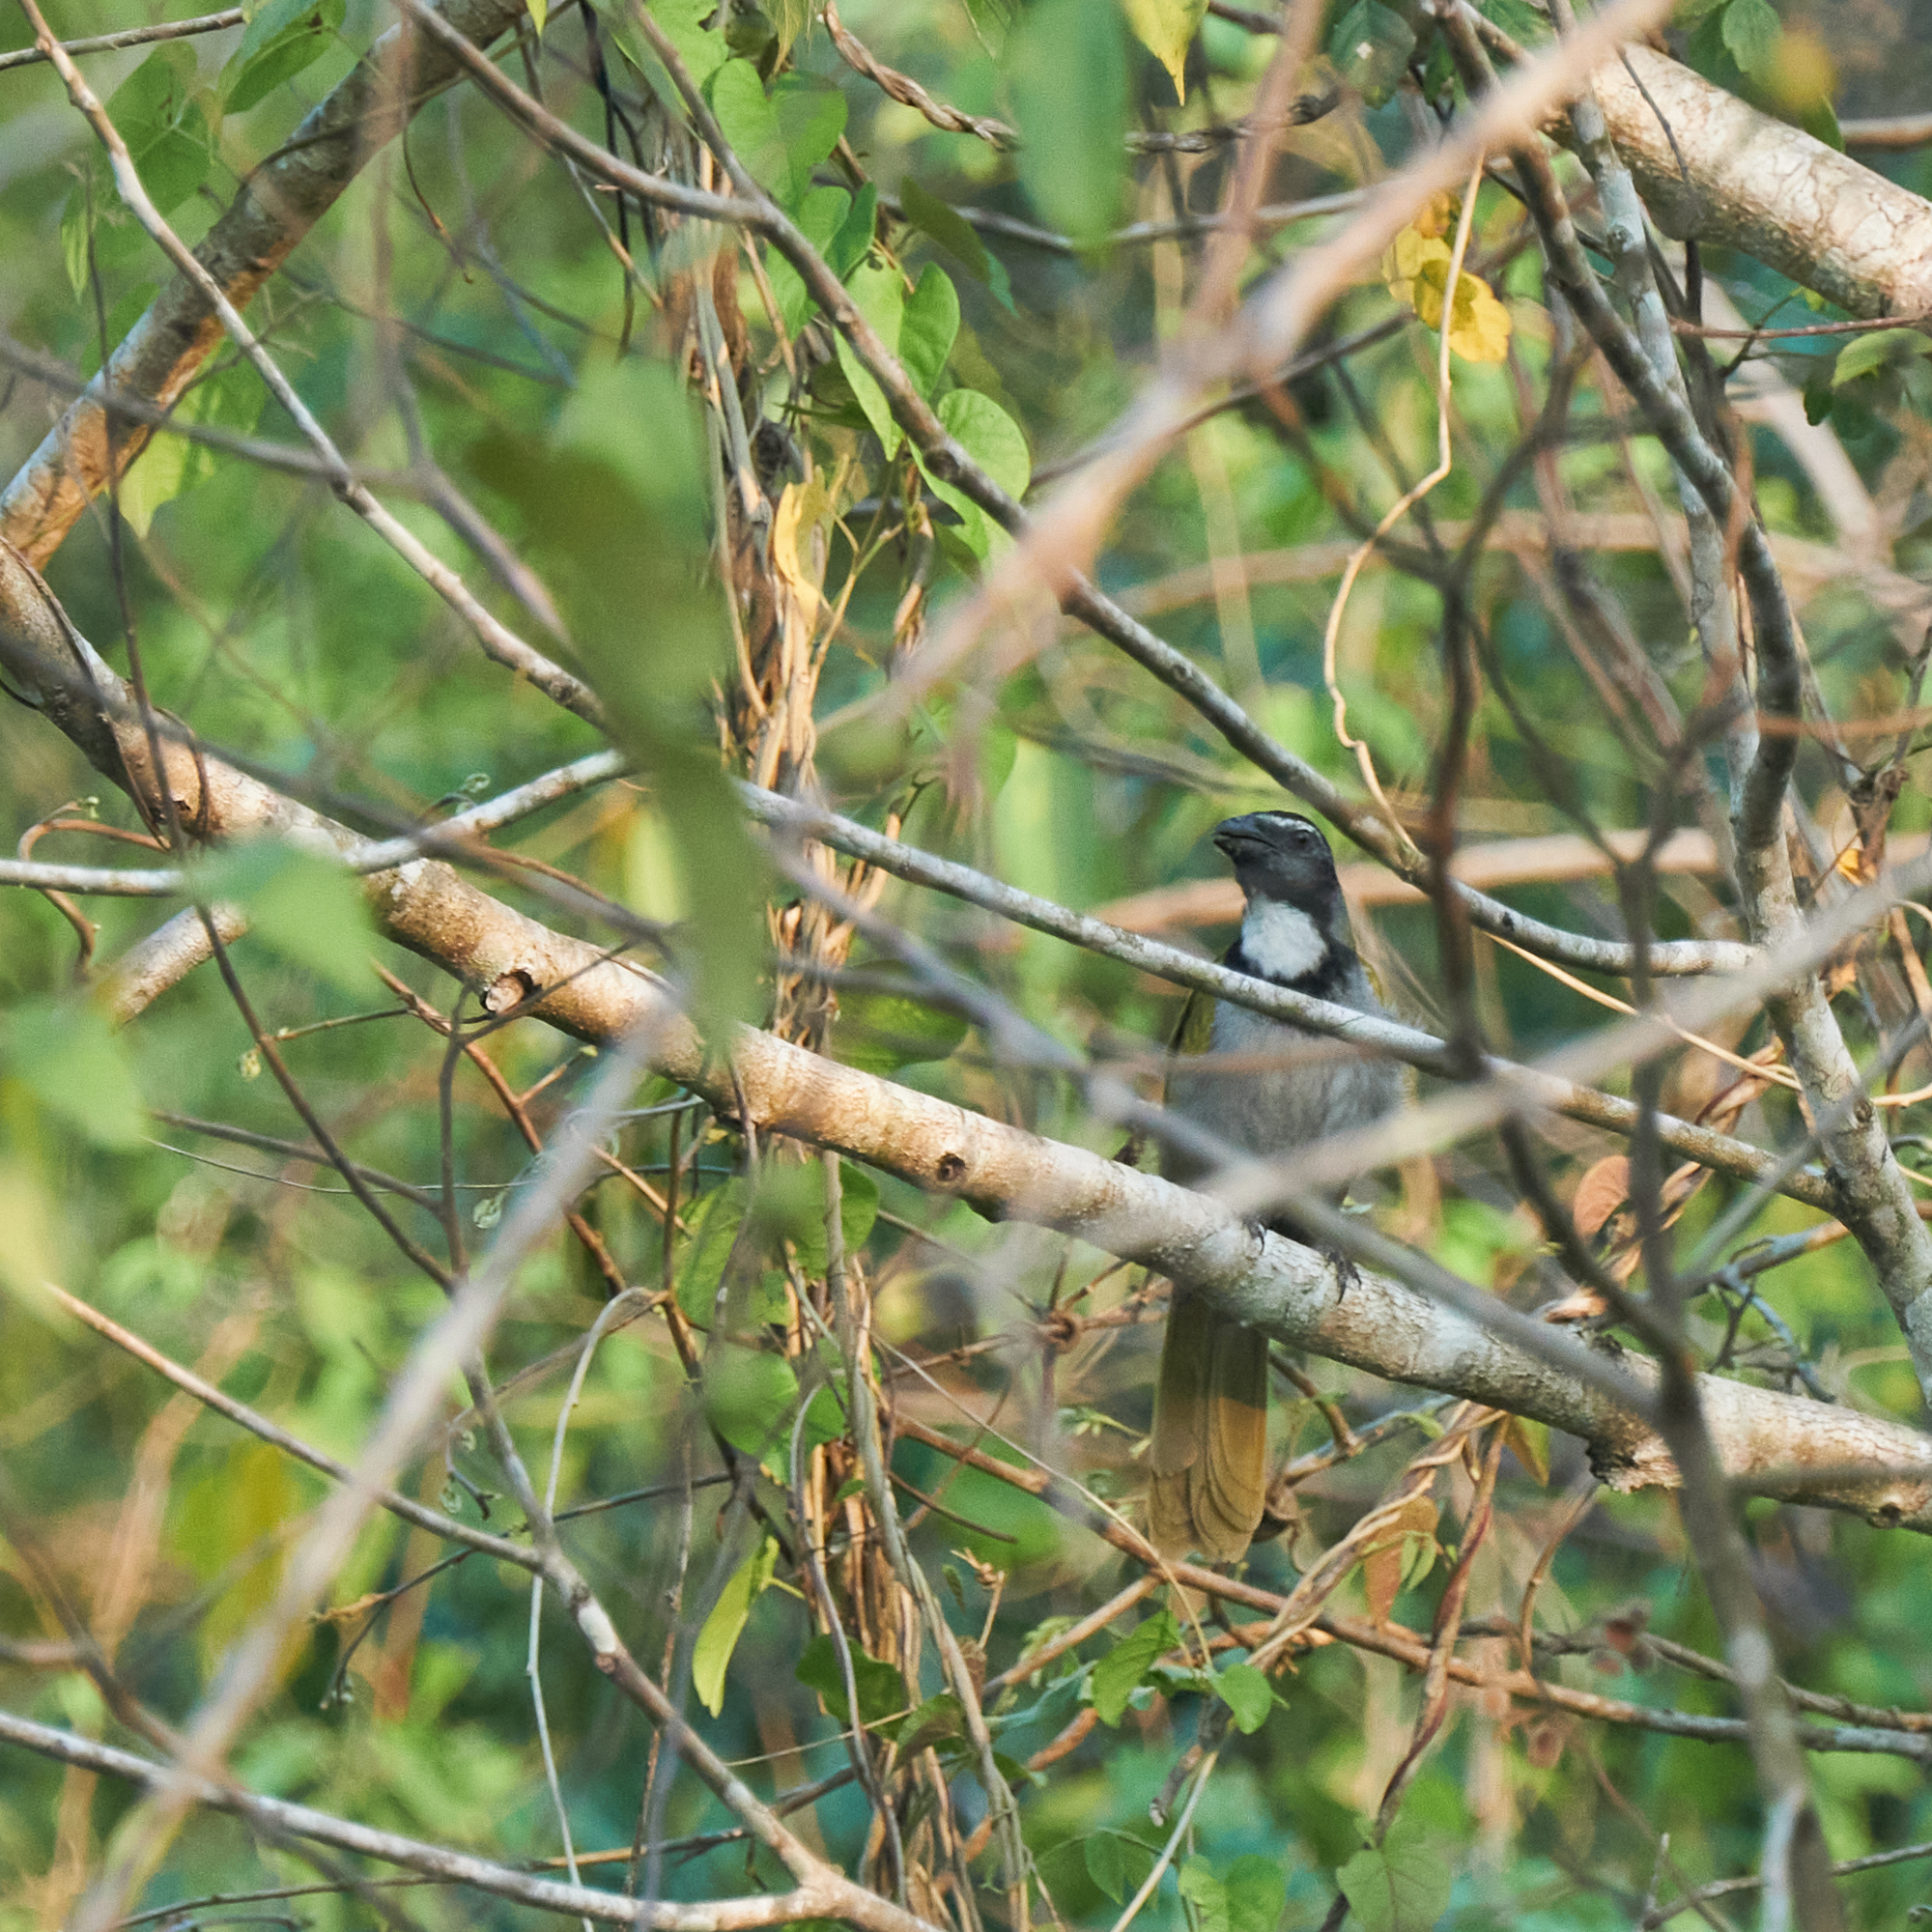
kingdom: Animalia
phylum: Chordata
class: Aves
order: Passeriformes
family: Thraupidae
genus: Saltator
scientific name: Saltator atriceps
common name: Black-headed saltator
